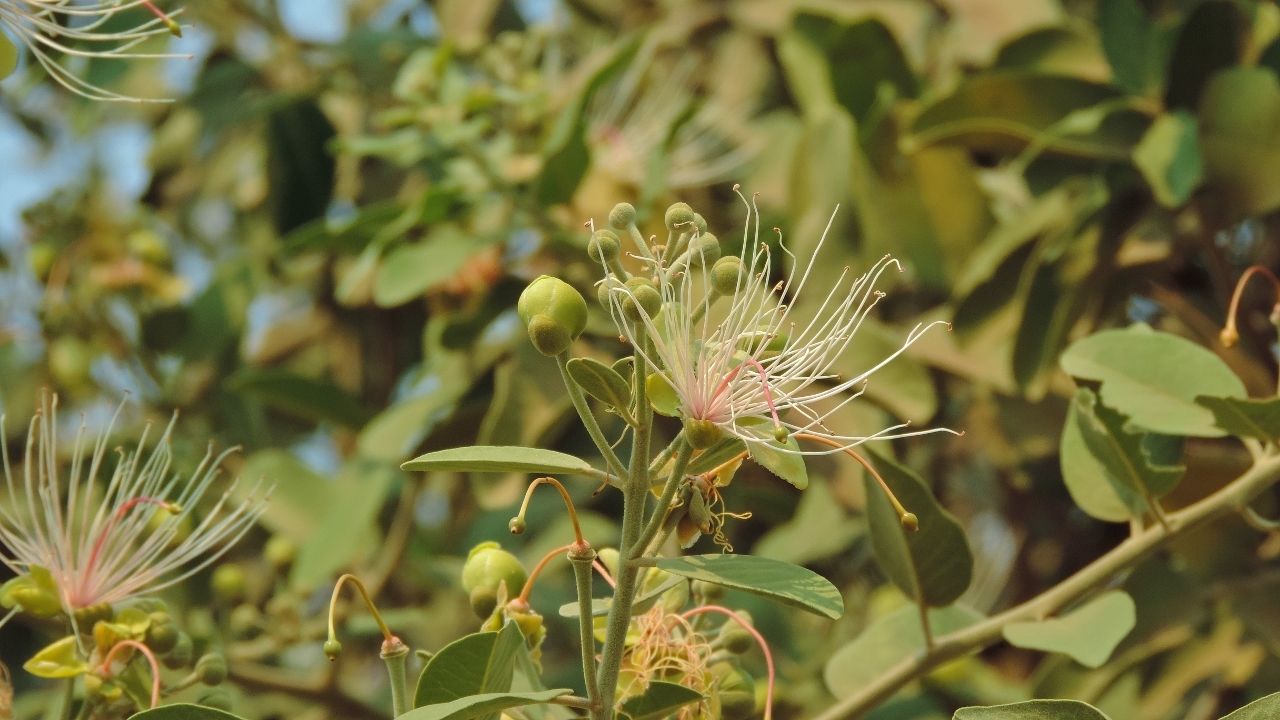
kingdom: Plantae
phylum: Tracheophyta
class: Magnoliopsida
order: Brassicales
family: Capparaceae
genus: Capparis
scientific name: Capparis tomentosa
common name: African caper
